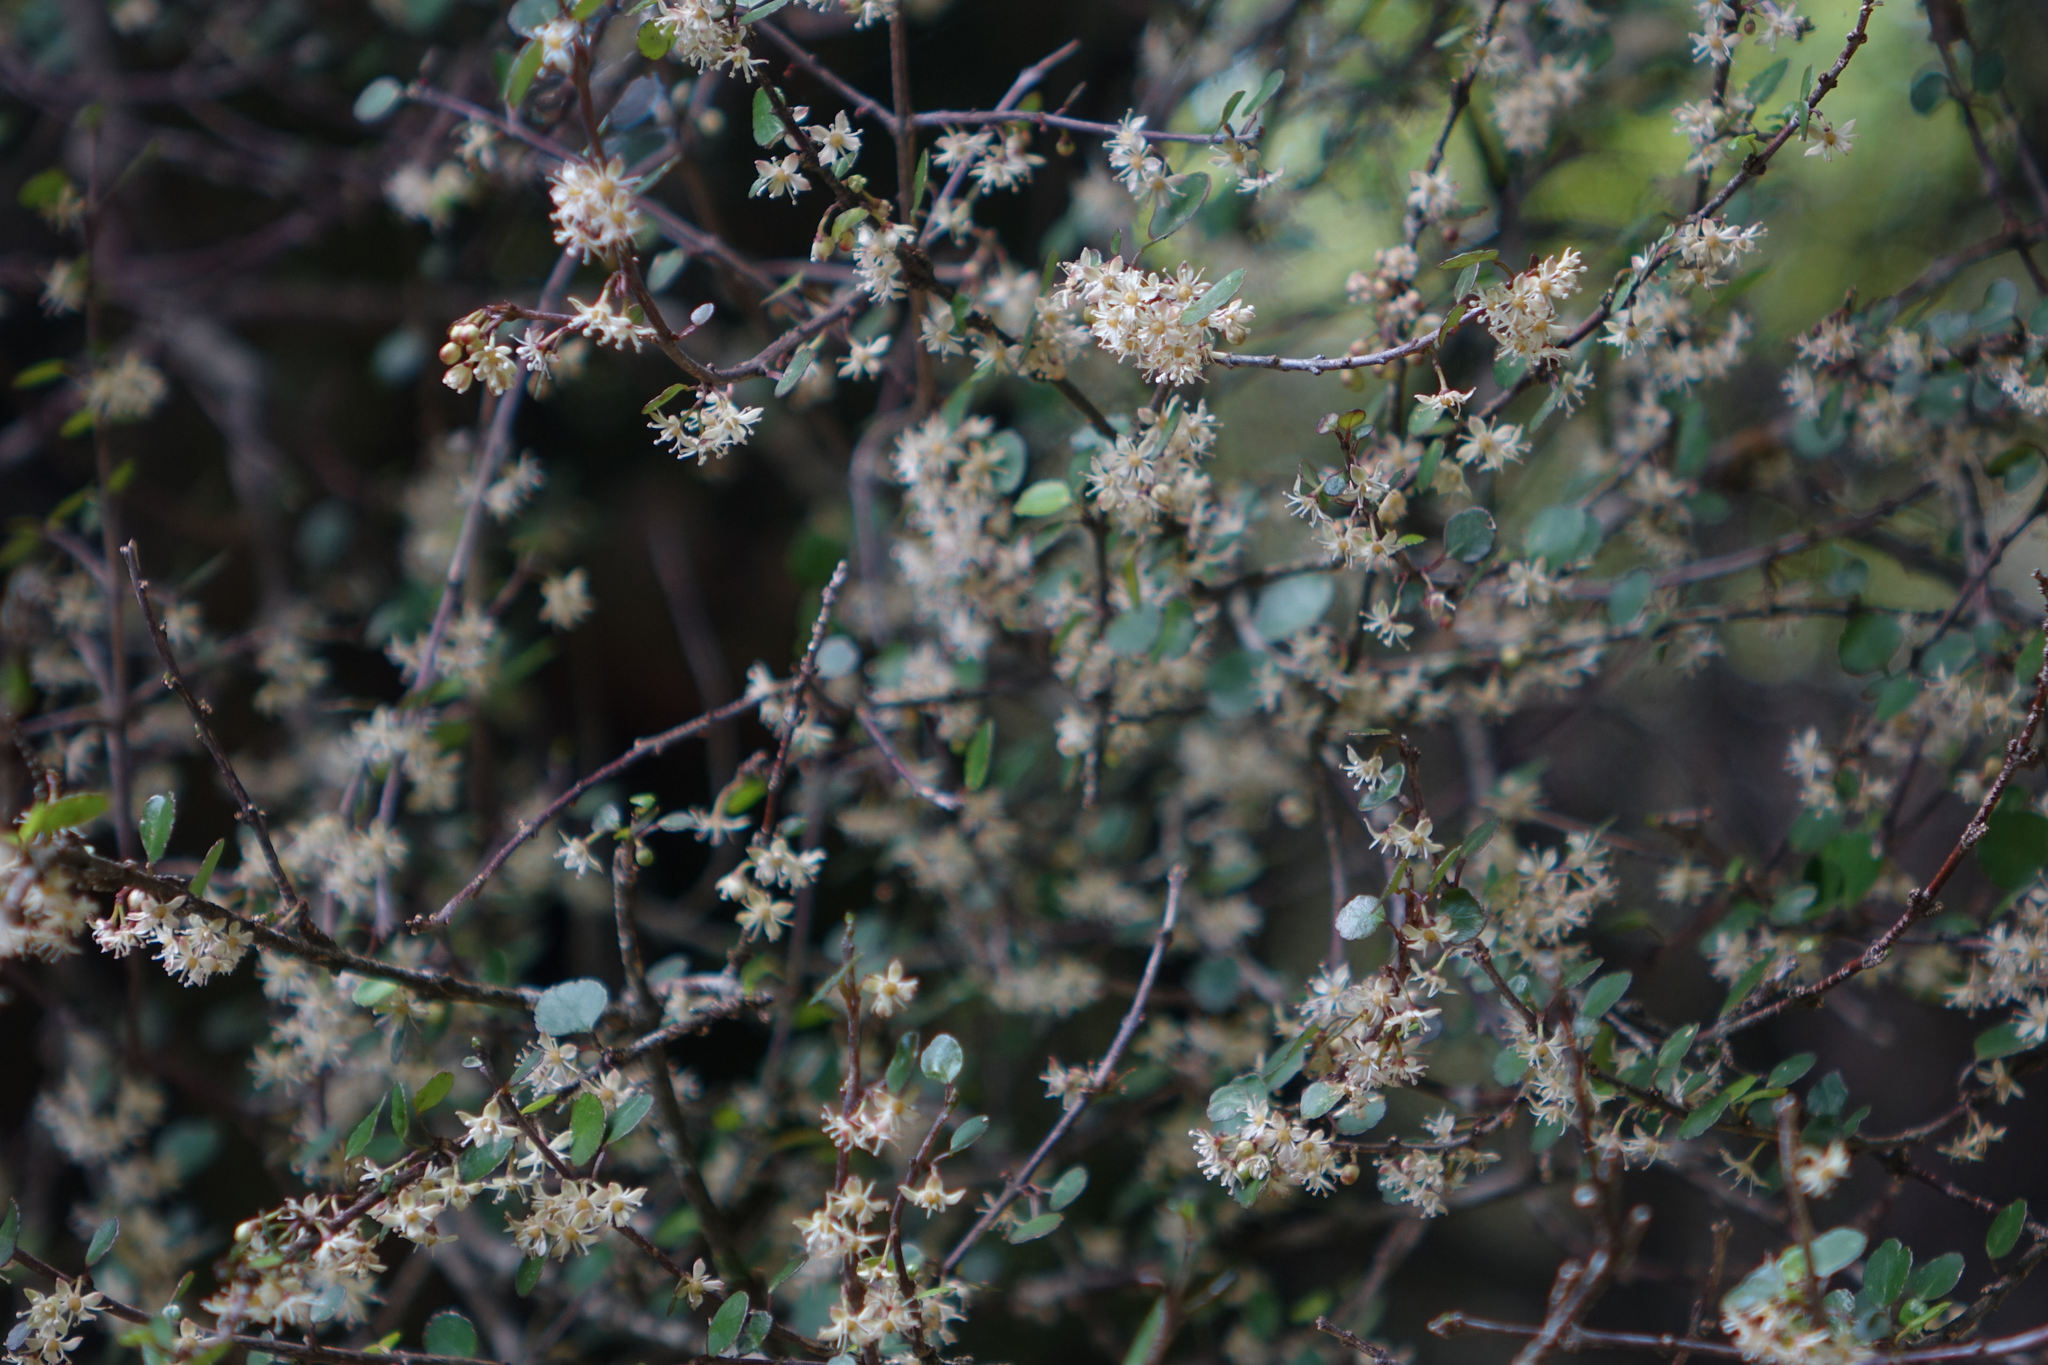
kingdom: Plantae
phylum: Tracheophyta
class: Magnoliopsida
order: Sapindales
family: Rutaceae
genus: Melicope
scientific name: Melicope simplex
